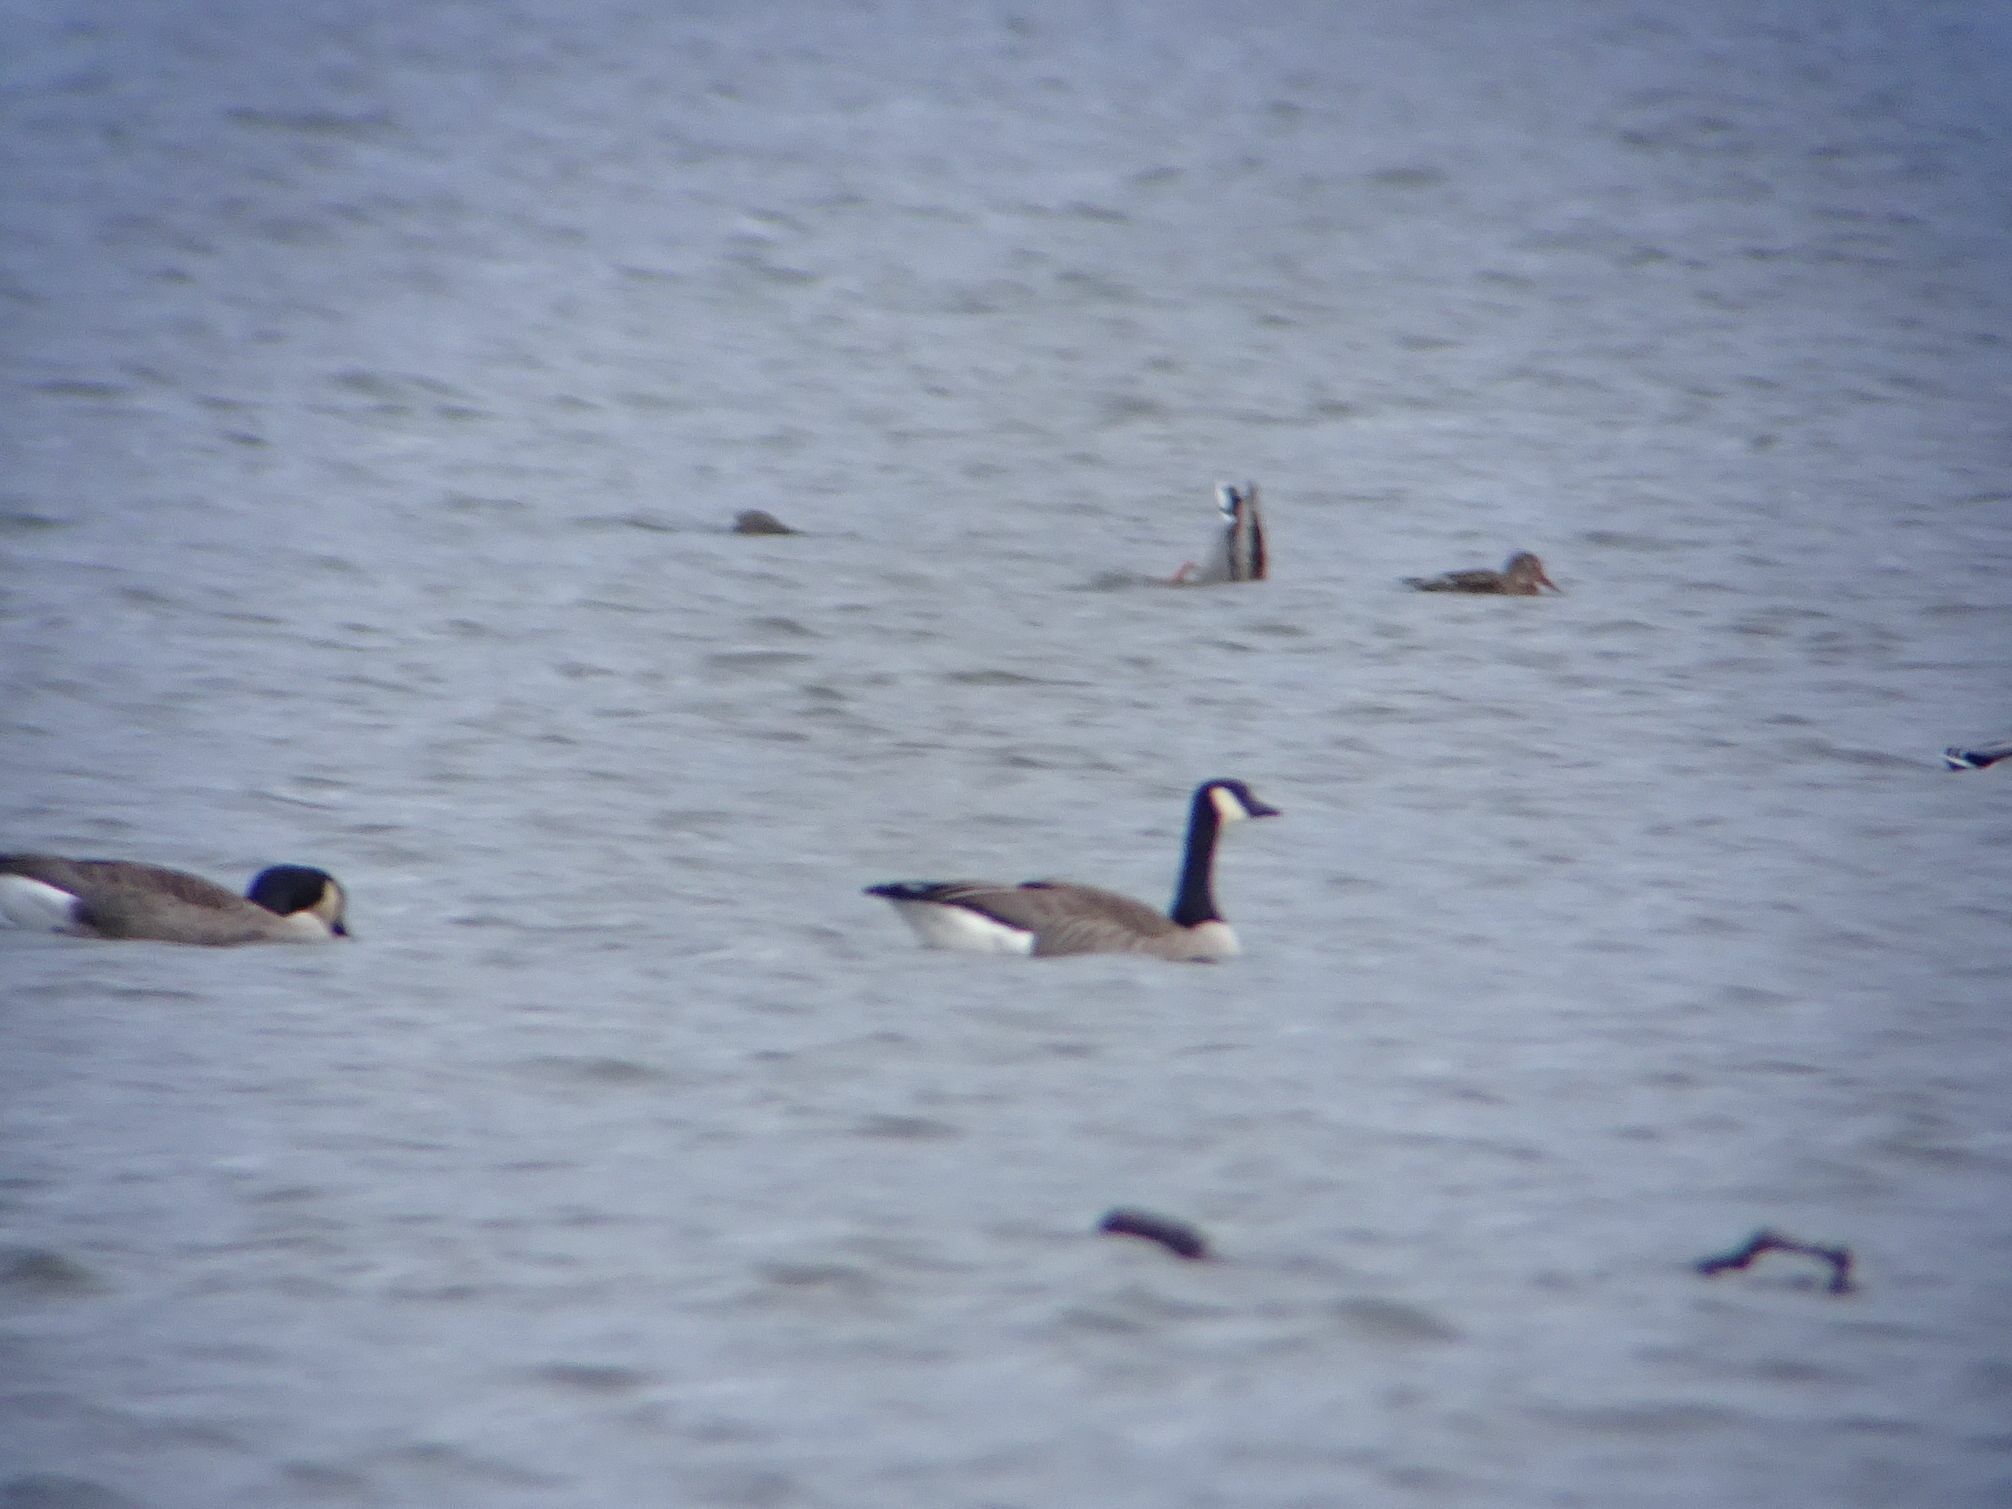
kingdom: Animalia
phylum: Chordata
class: Aves
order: Anseriformes
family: Anatidae
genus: Branta
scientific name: Branta canadensis
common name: Canada goose
